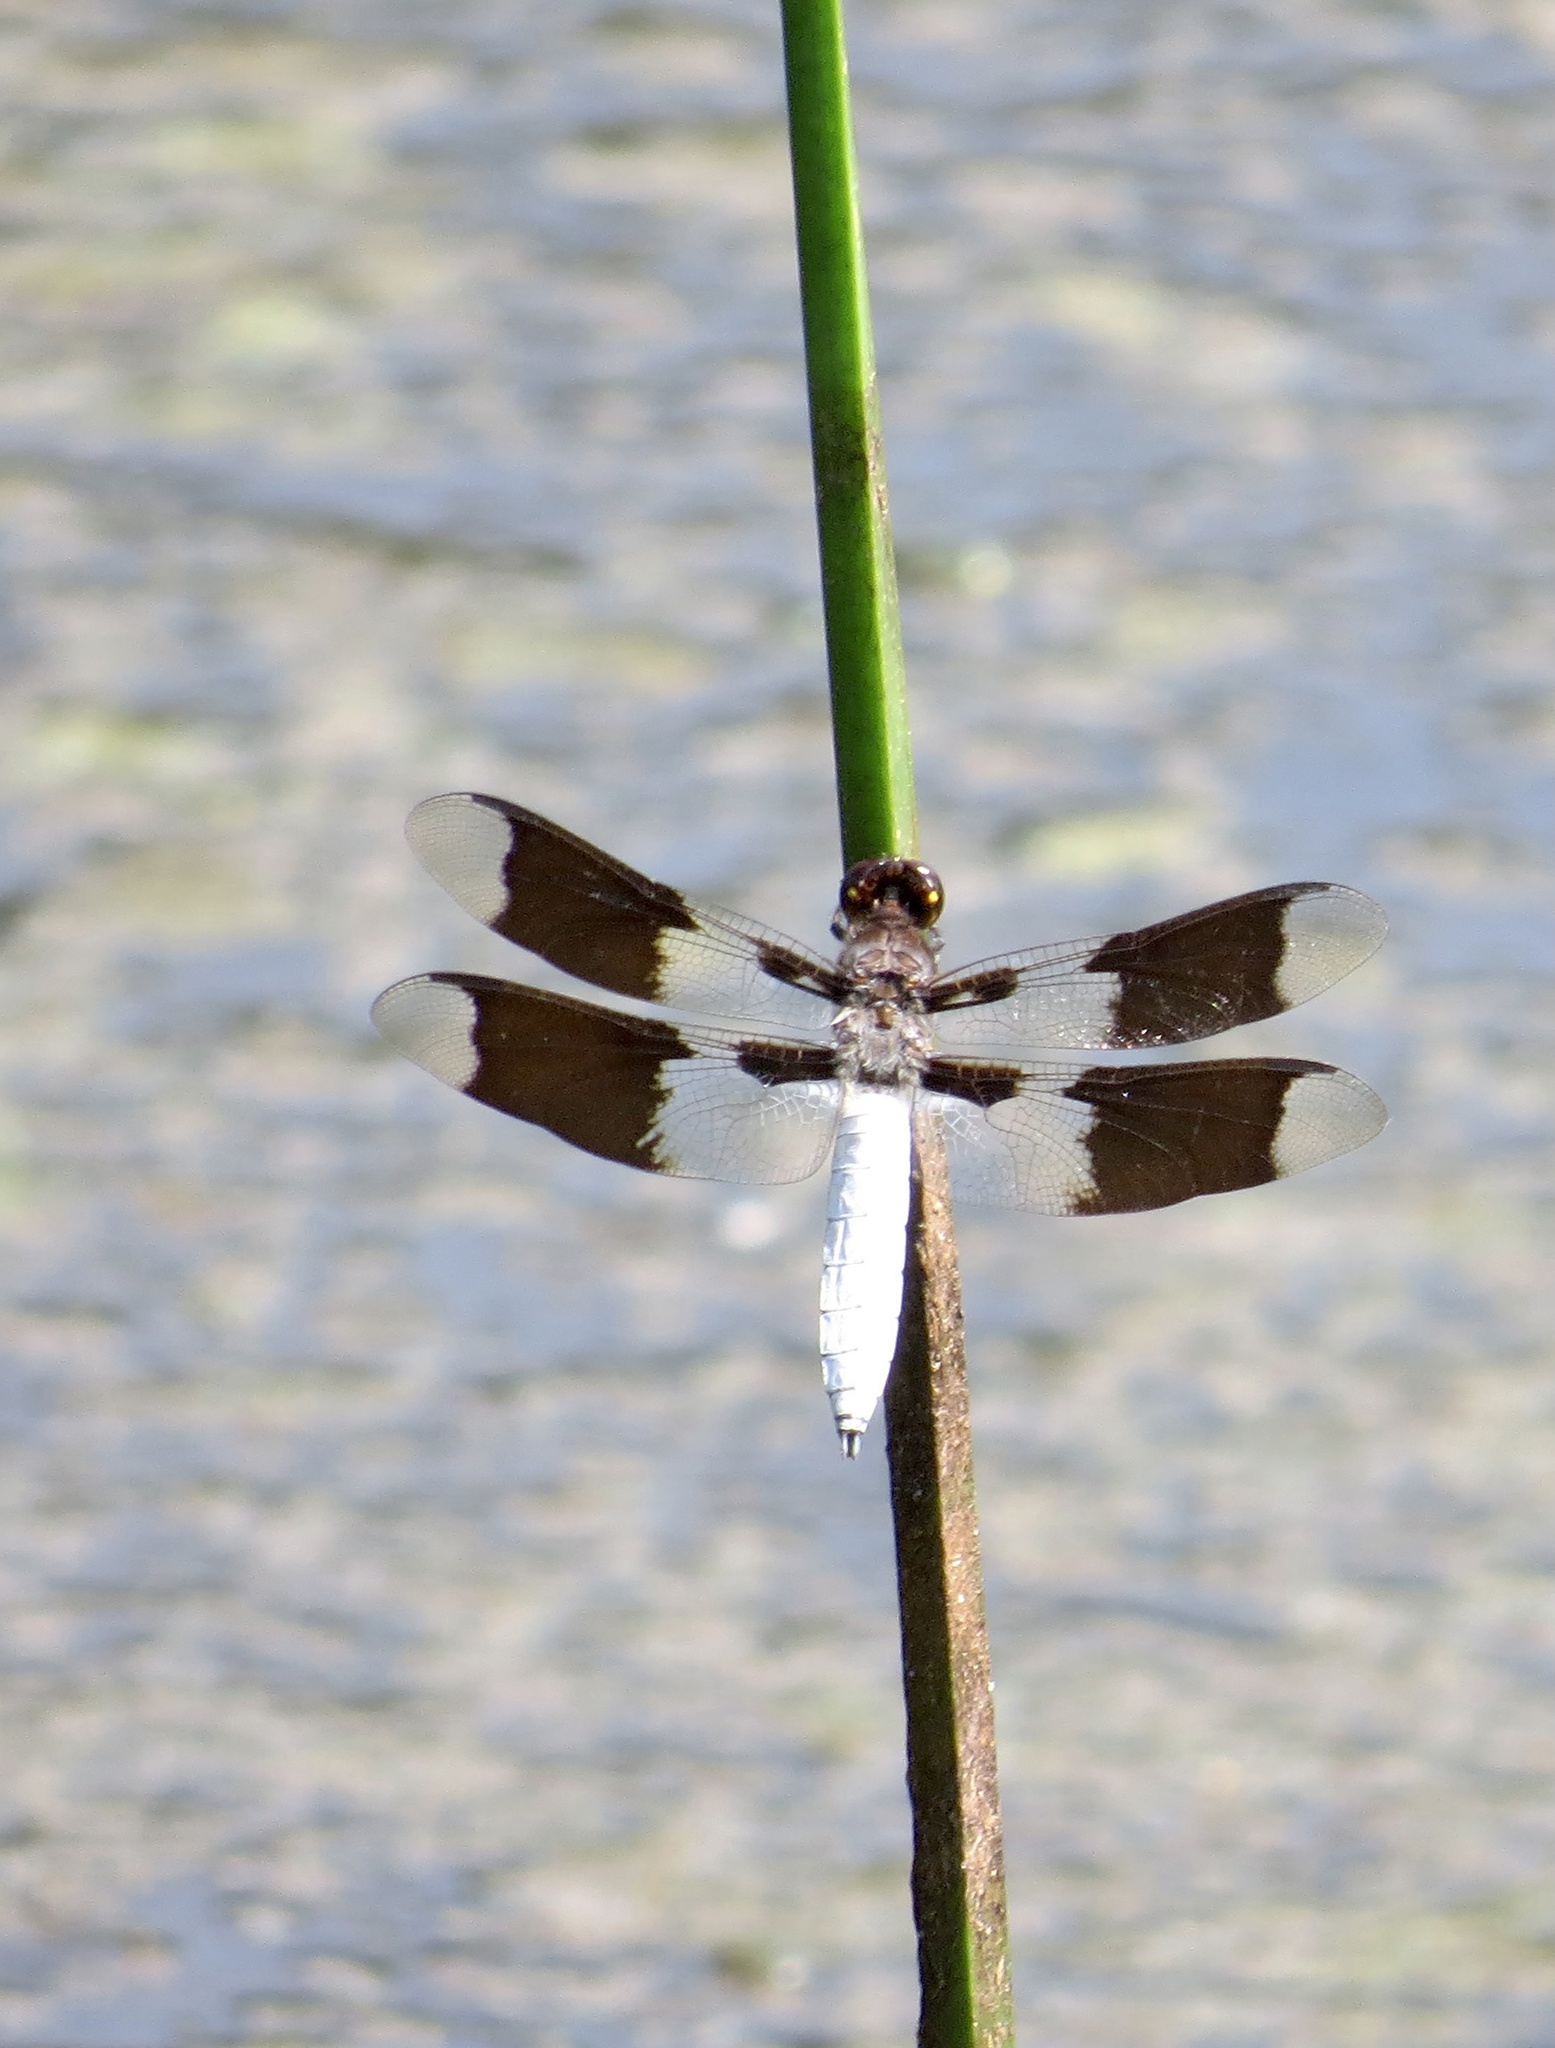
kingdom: Animalia
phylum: Arthropoda
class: Insecta
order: Odonata
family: Libellulidae
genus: Plathemis
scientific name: Plathemis lydia
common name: Common whitetail
